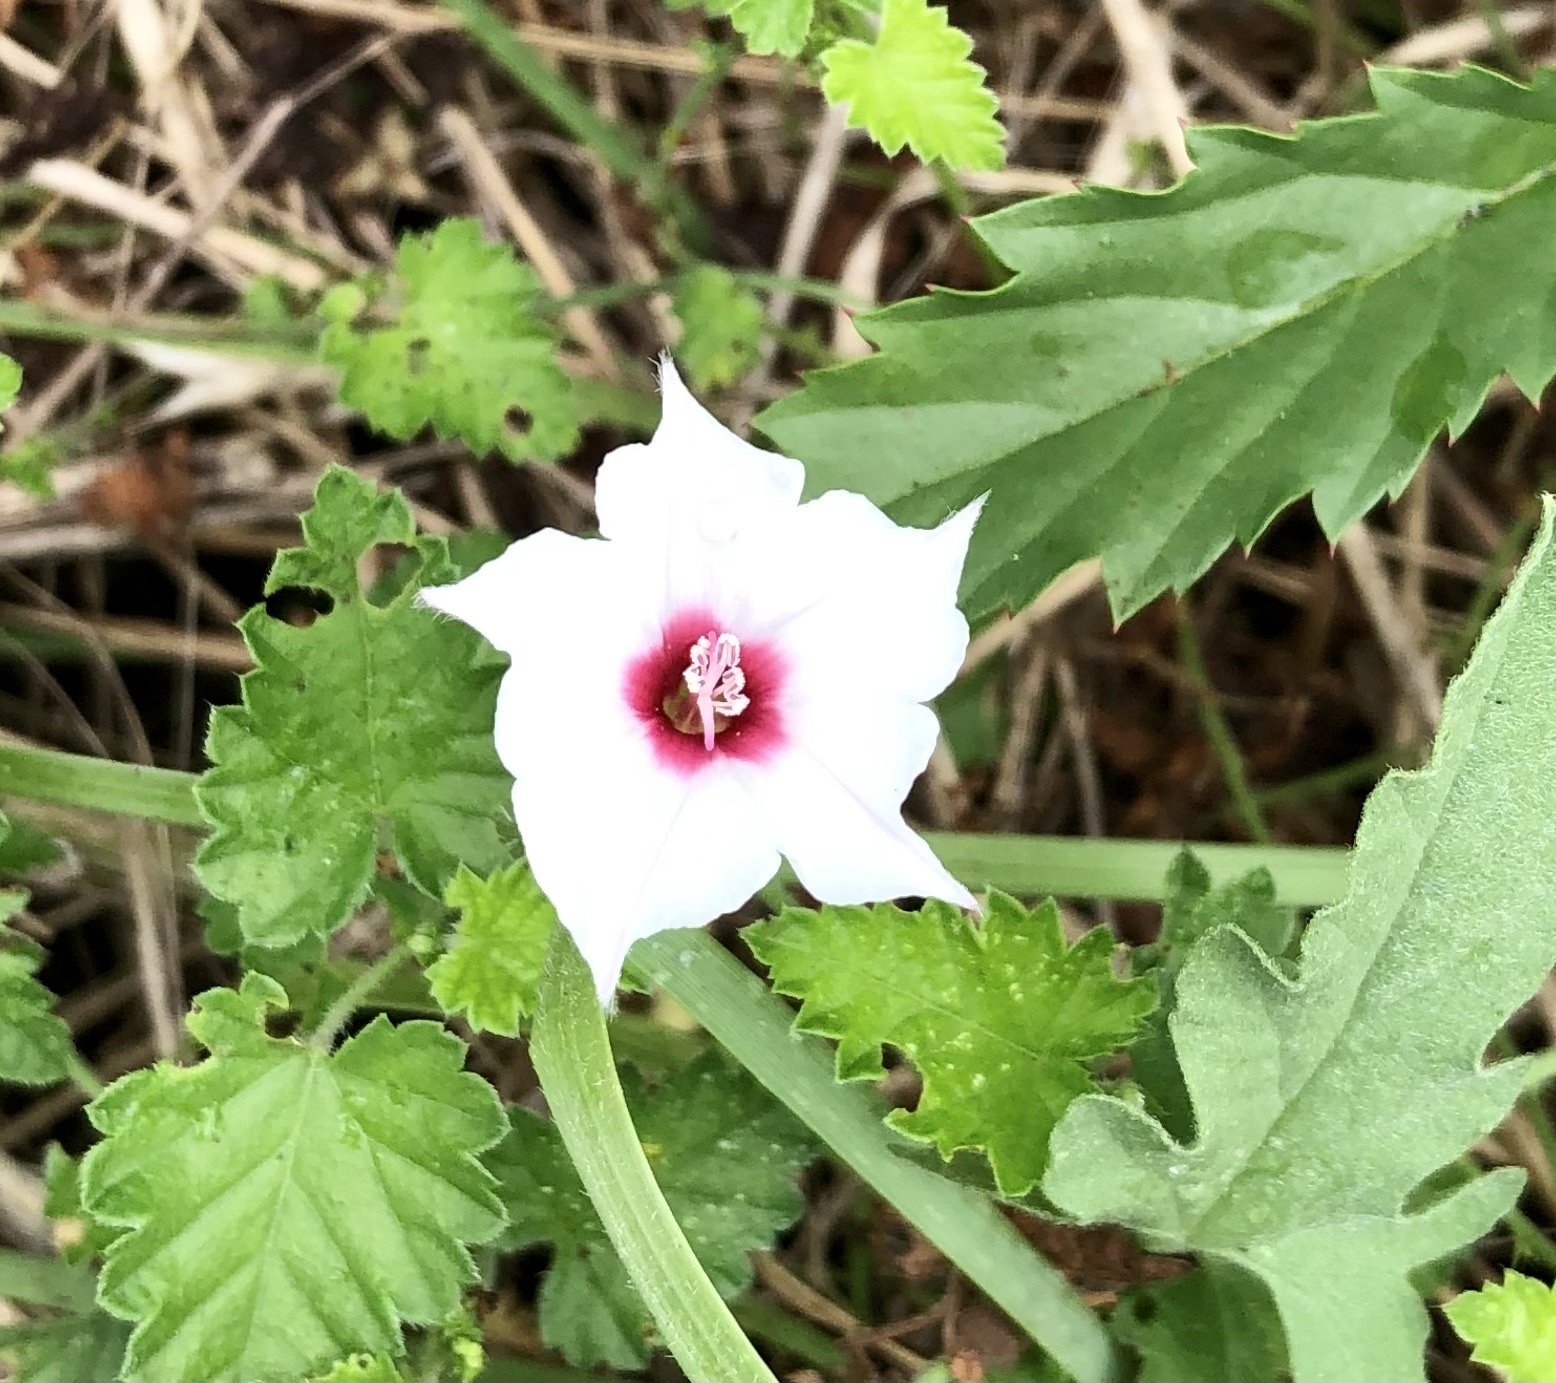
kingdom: Plantae
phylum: Tracheophyta
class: Magnoliopsida
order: Solanales
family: Convolvulaceae
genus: Convolvulus
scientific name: Convolvulus equitans
